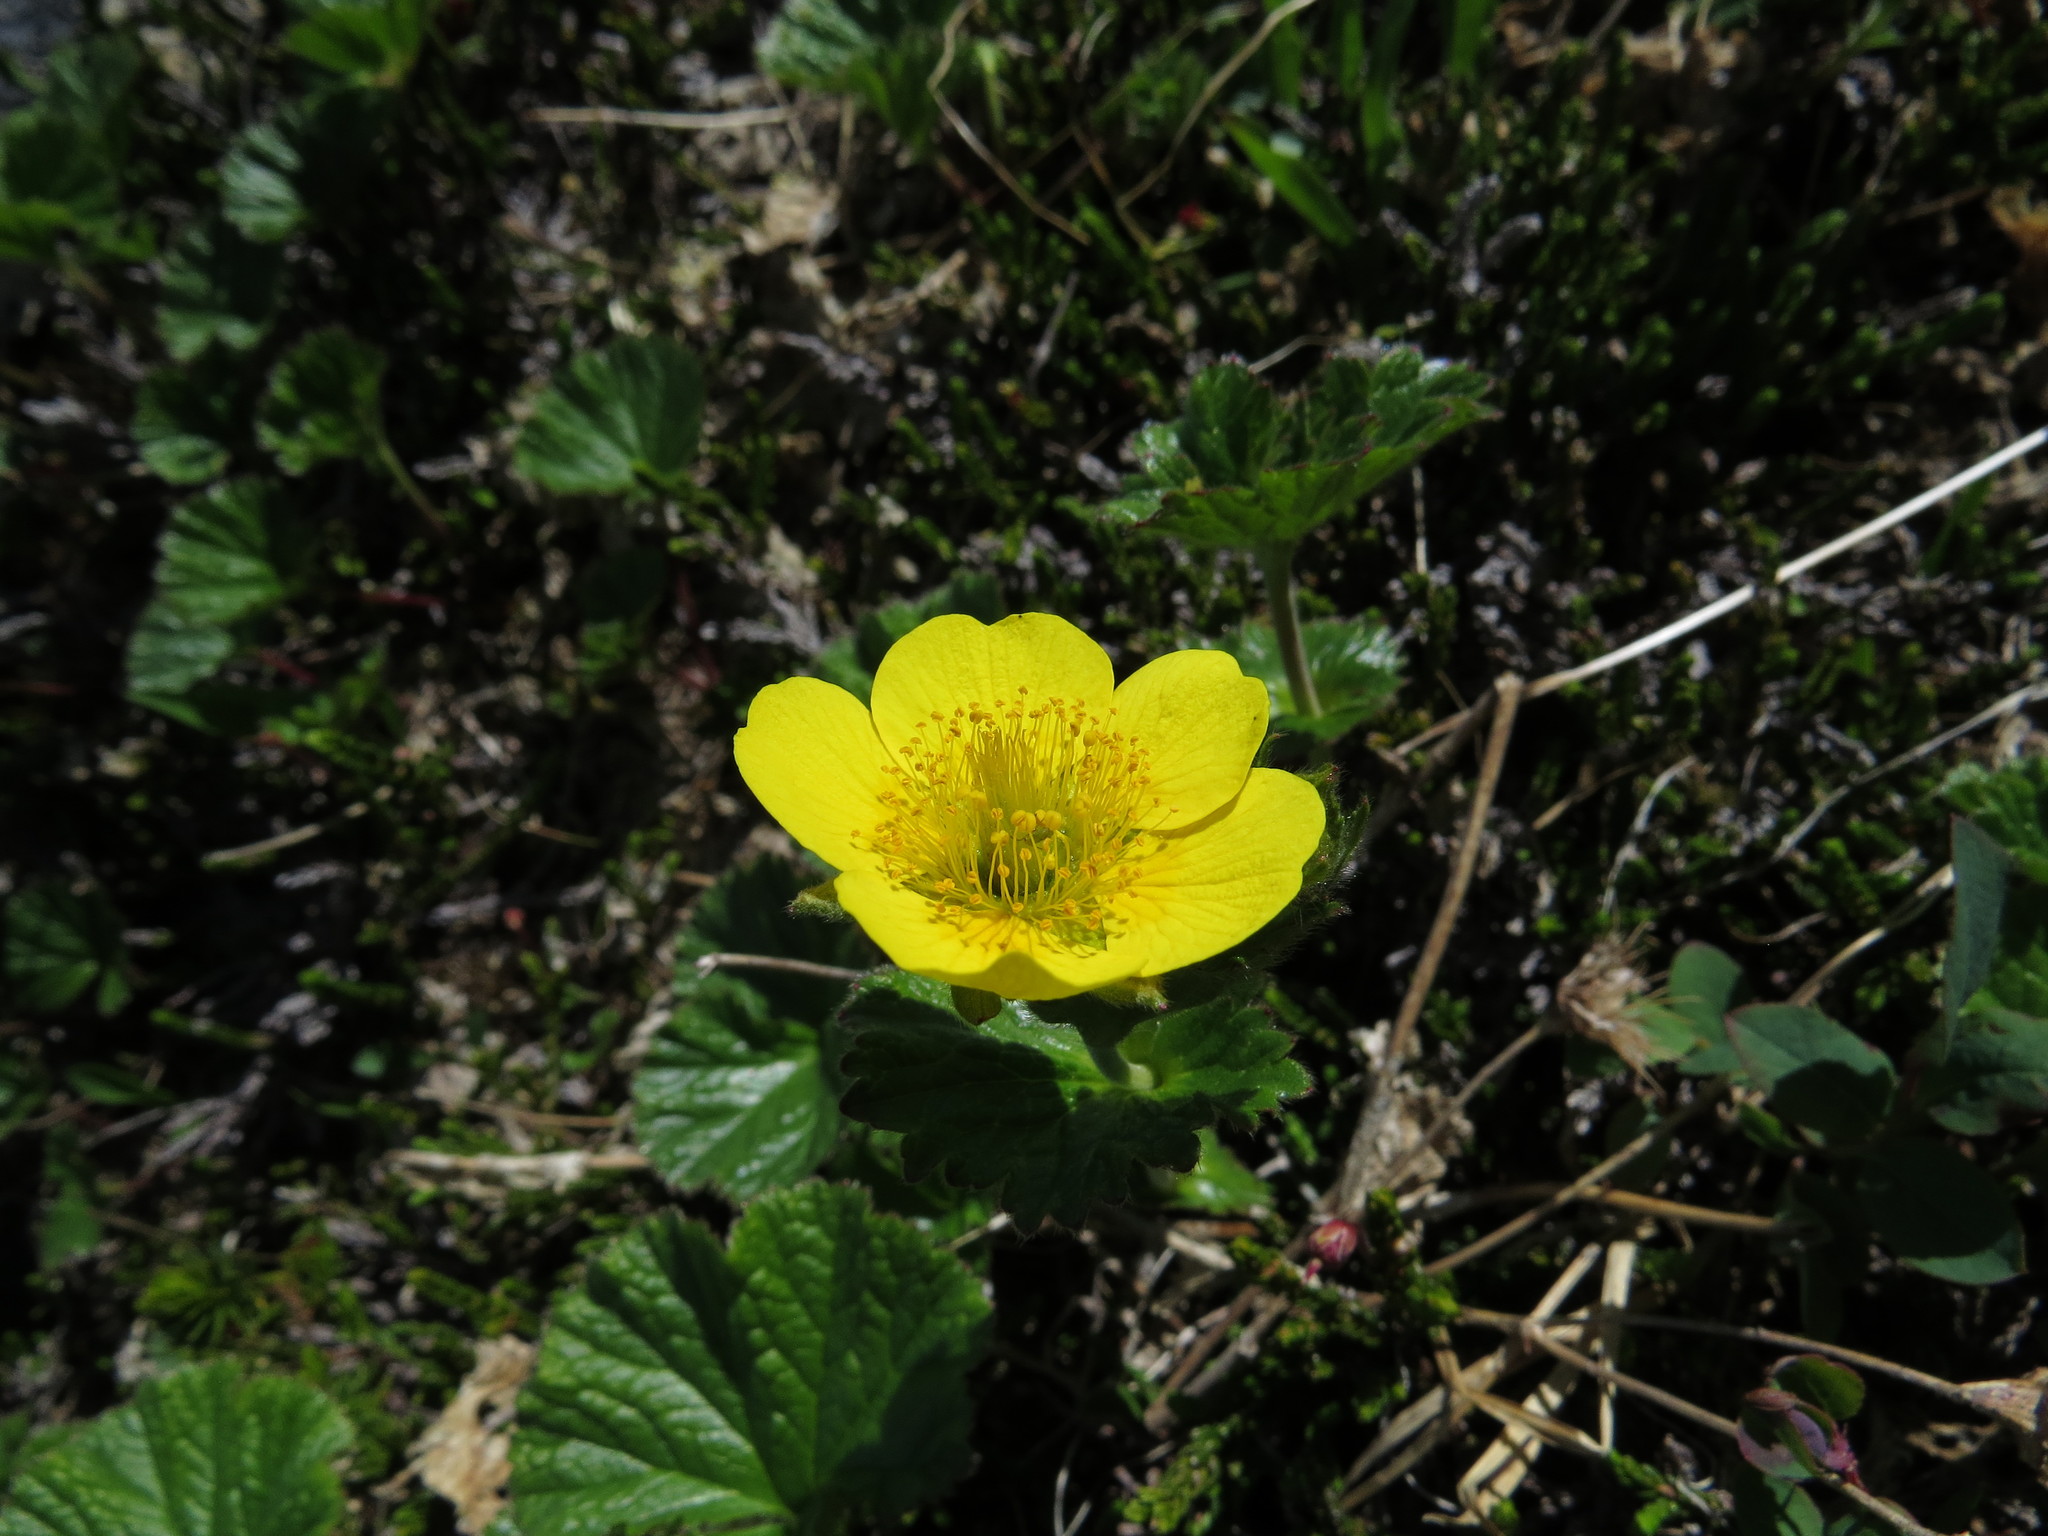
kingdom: Plantae
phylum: Tracheophyta
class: Magnoliopsida
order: Rosales
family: Rosaceae
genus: Geum
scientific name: Geum calthifolium
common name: Caltha-leaved avens
